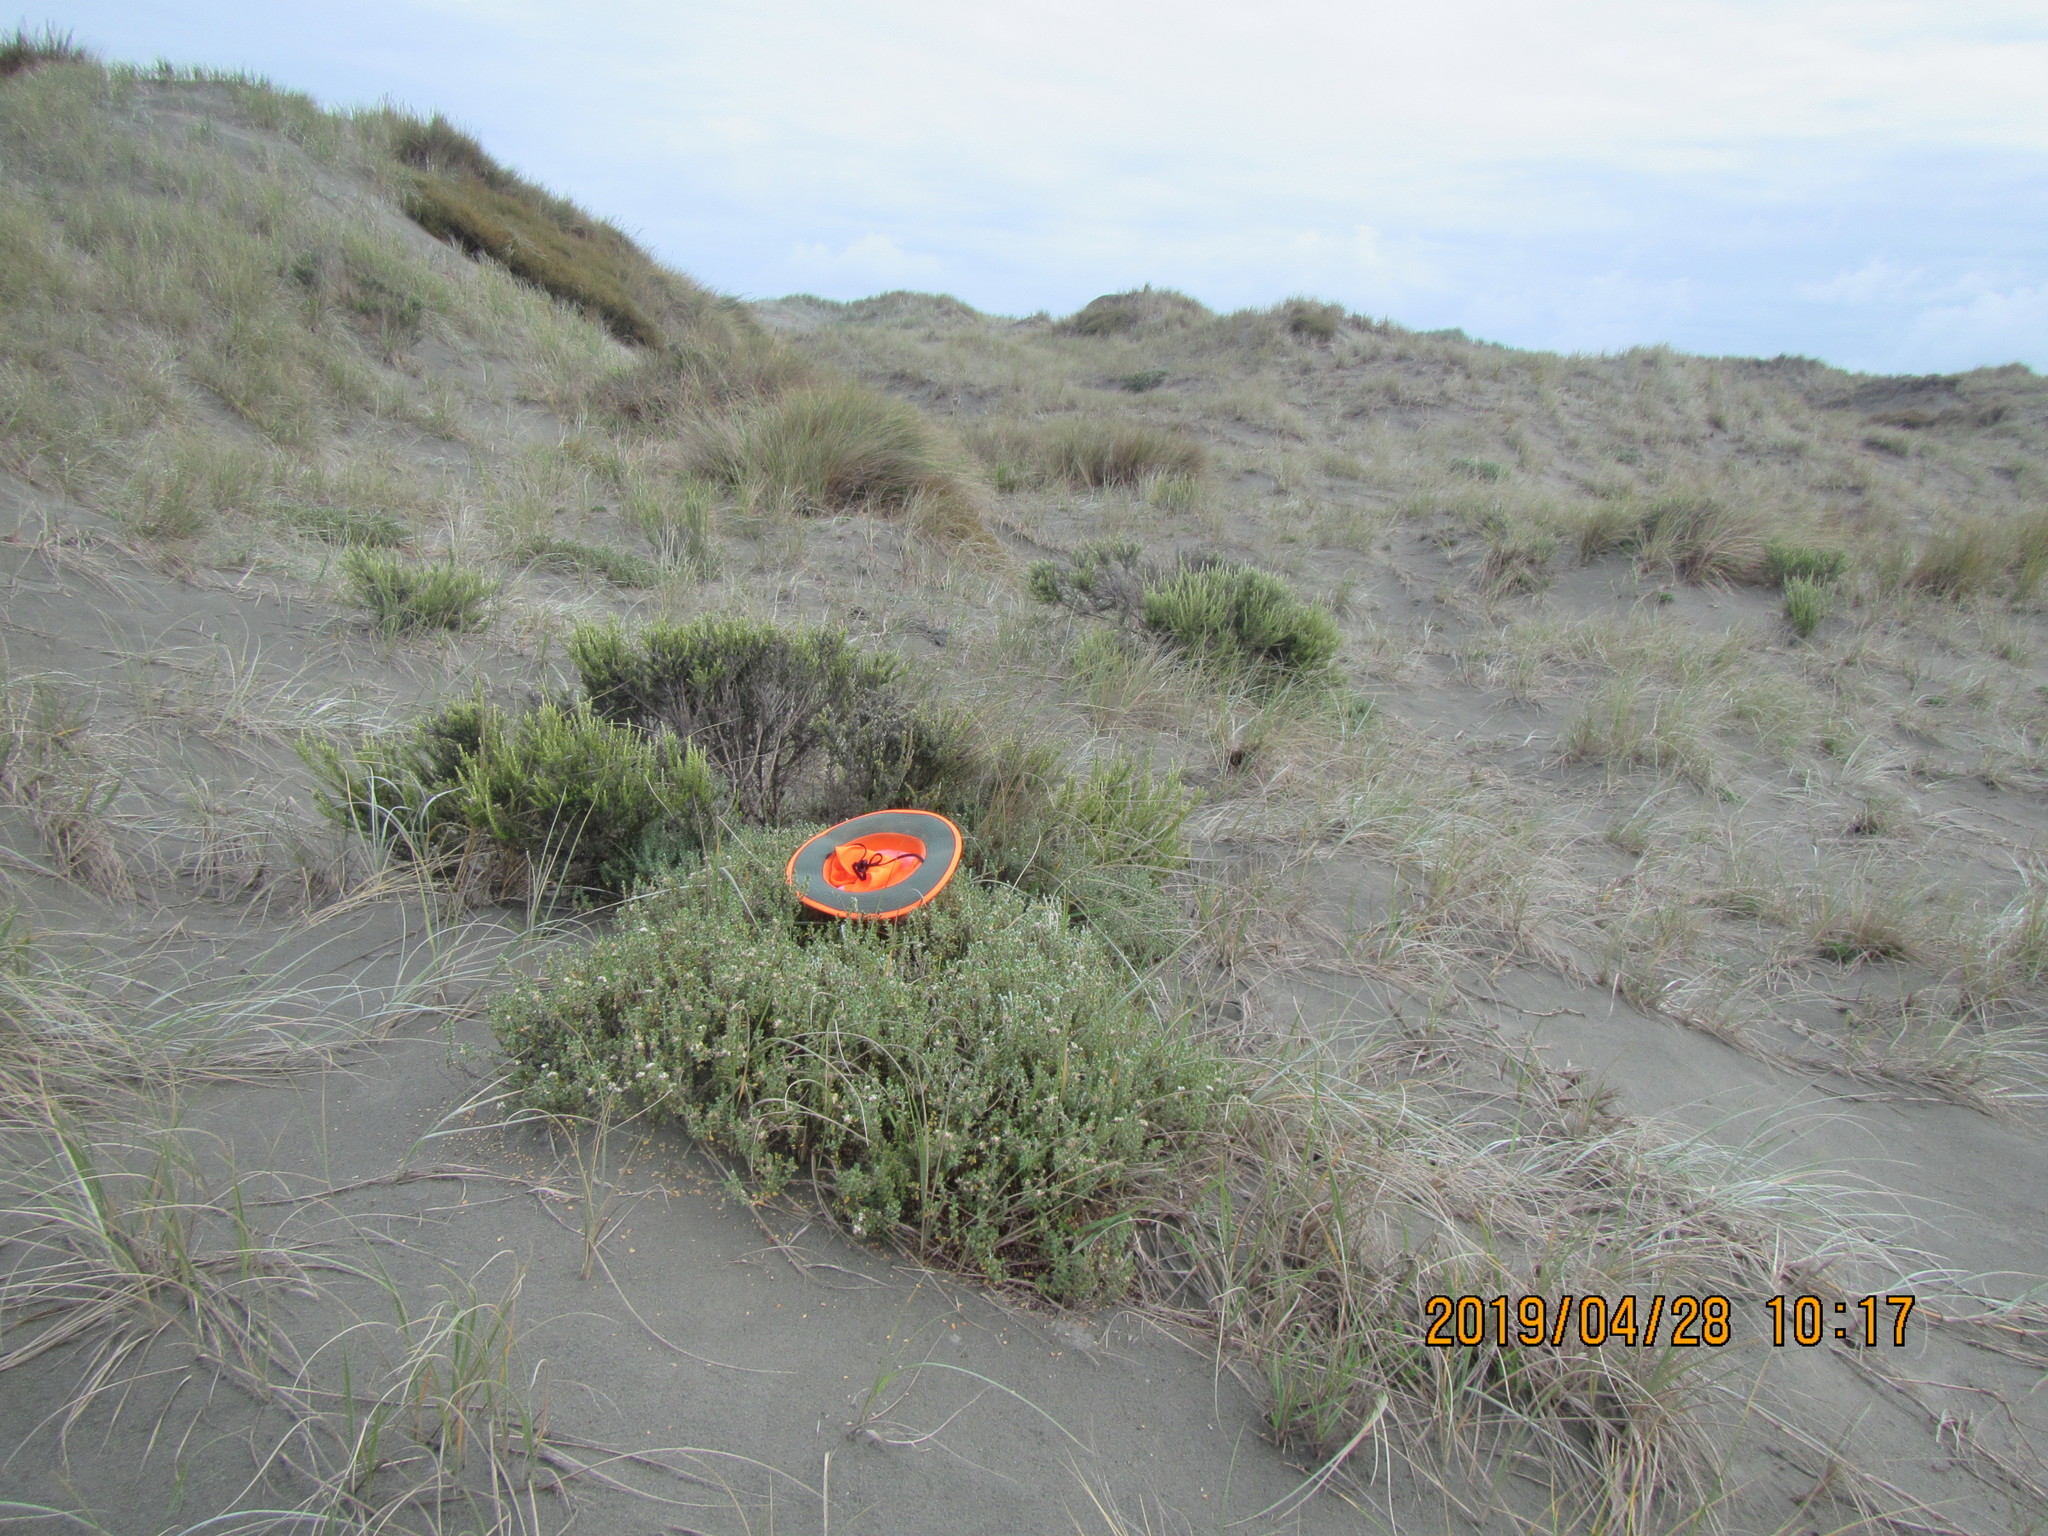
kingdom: Plantae
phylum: Tracheophyta
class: Magnoliopsida
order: Malvales
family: Thymelaeaceae
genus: Pimelea
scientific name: Pimelea villosa
